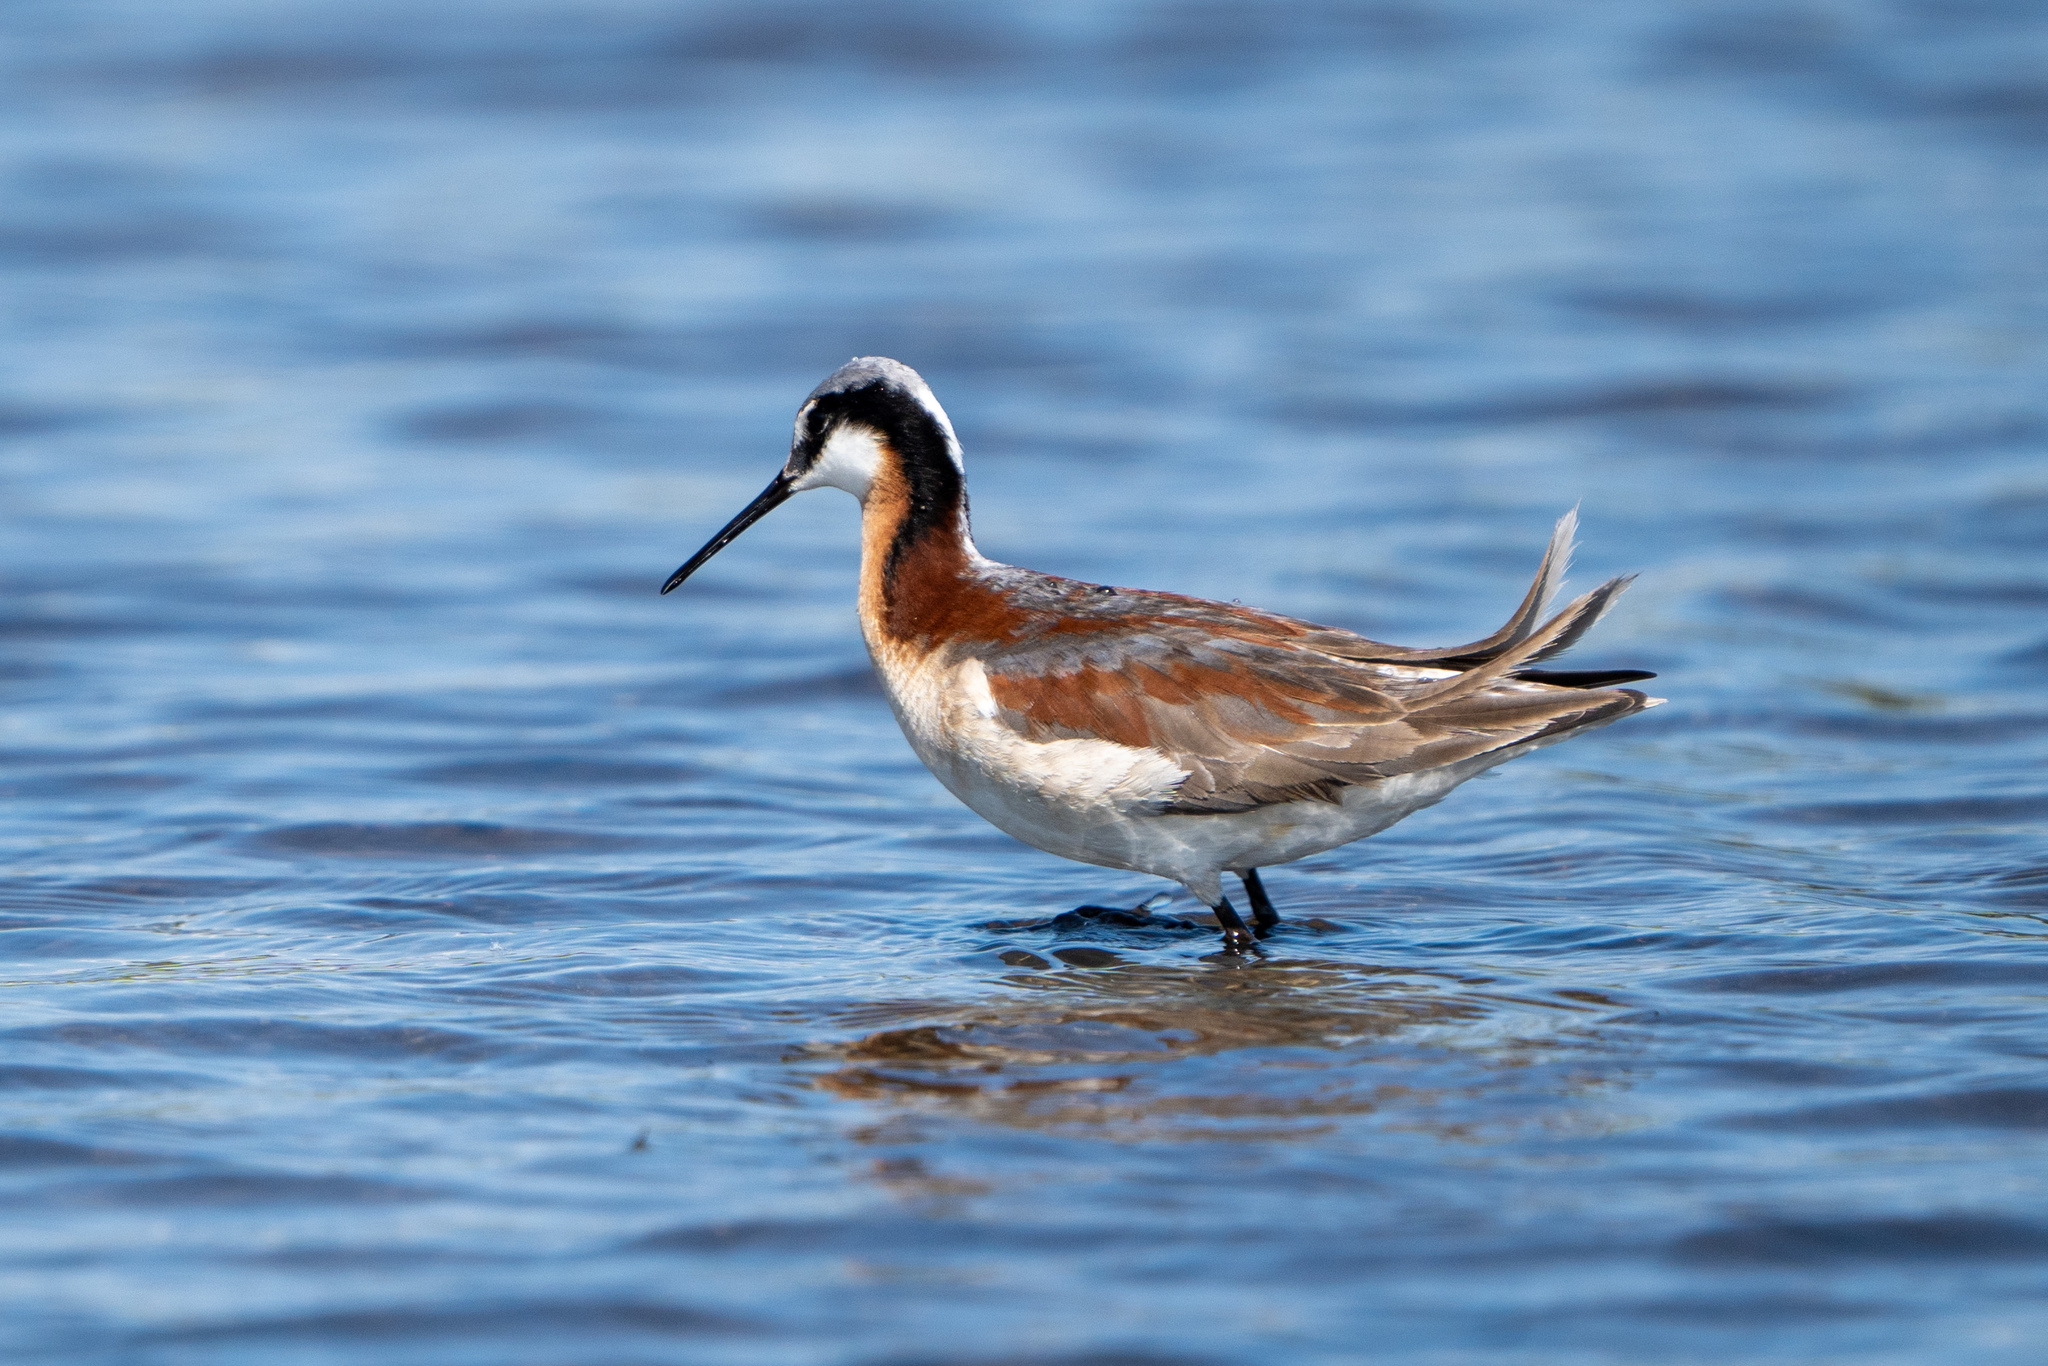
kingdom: Animalia
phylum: Chordata
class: Aves
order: Charadriiformes
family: Scolopacidae
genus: Phalaropus
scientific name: Phalaropus tricolor
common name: Wilson's phalarope
